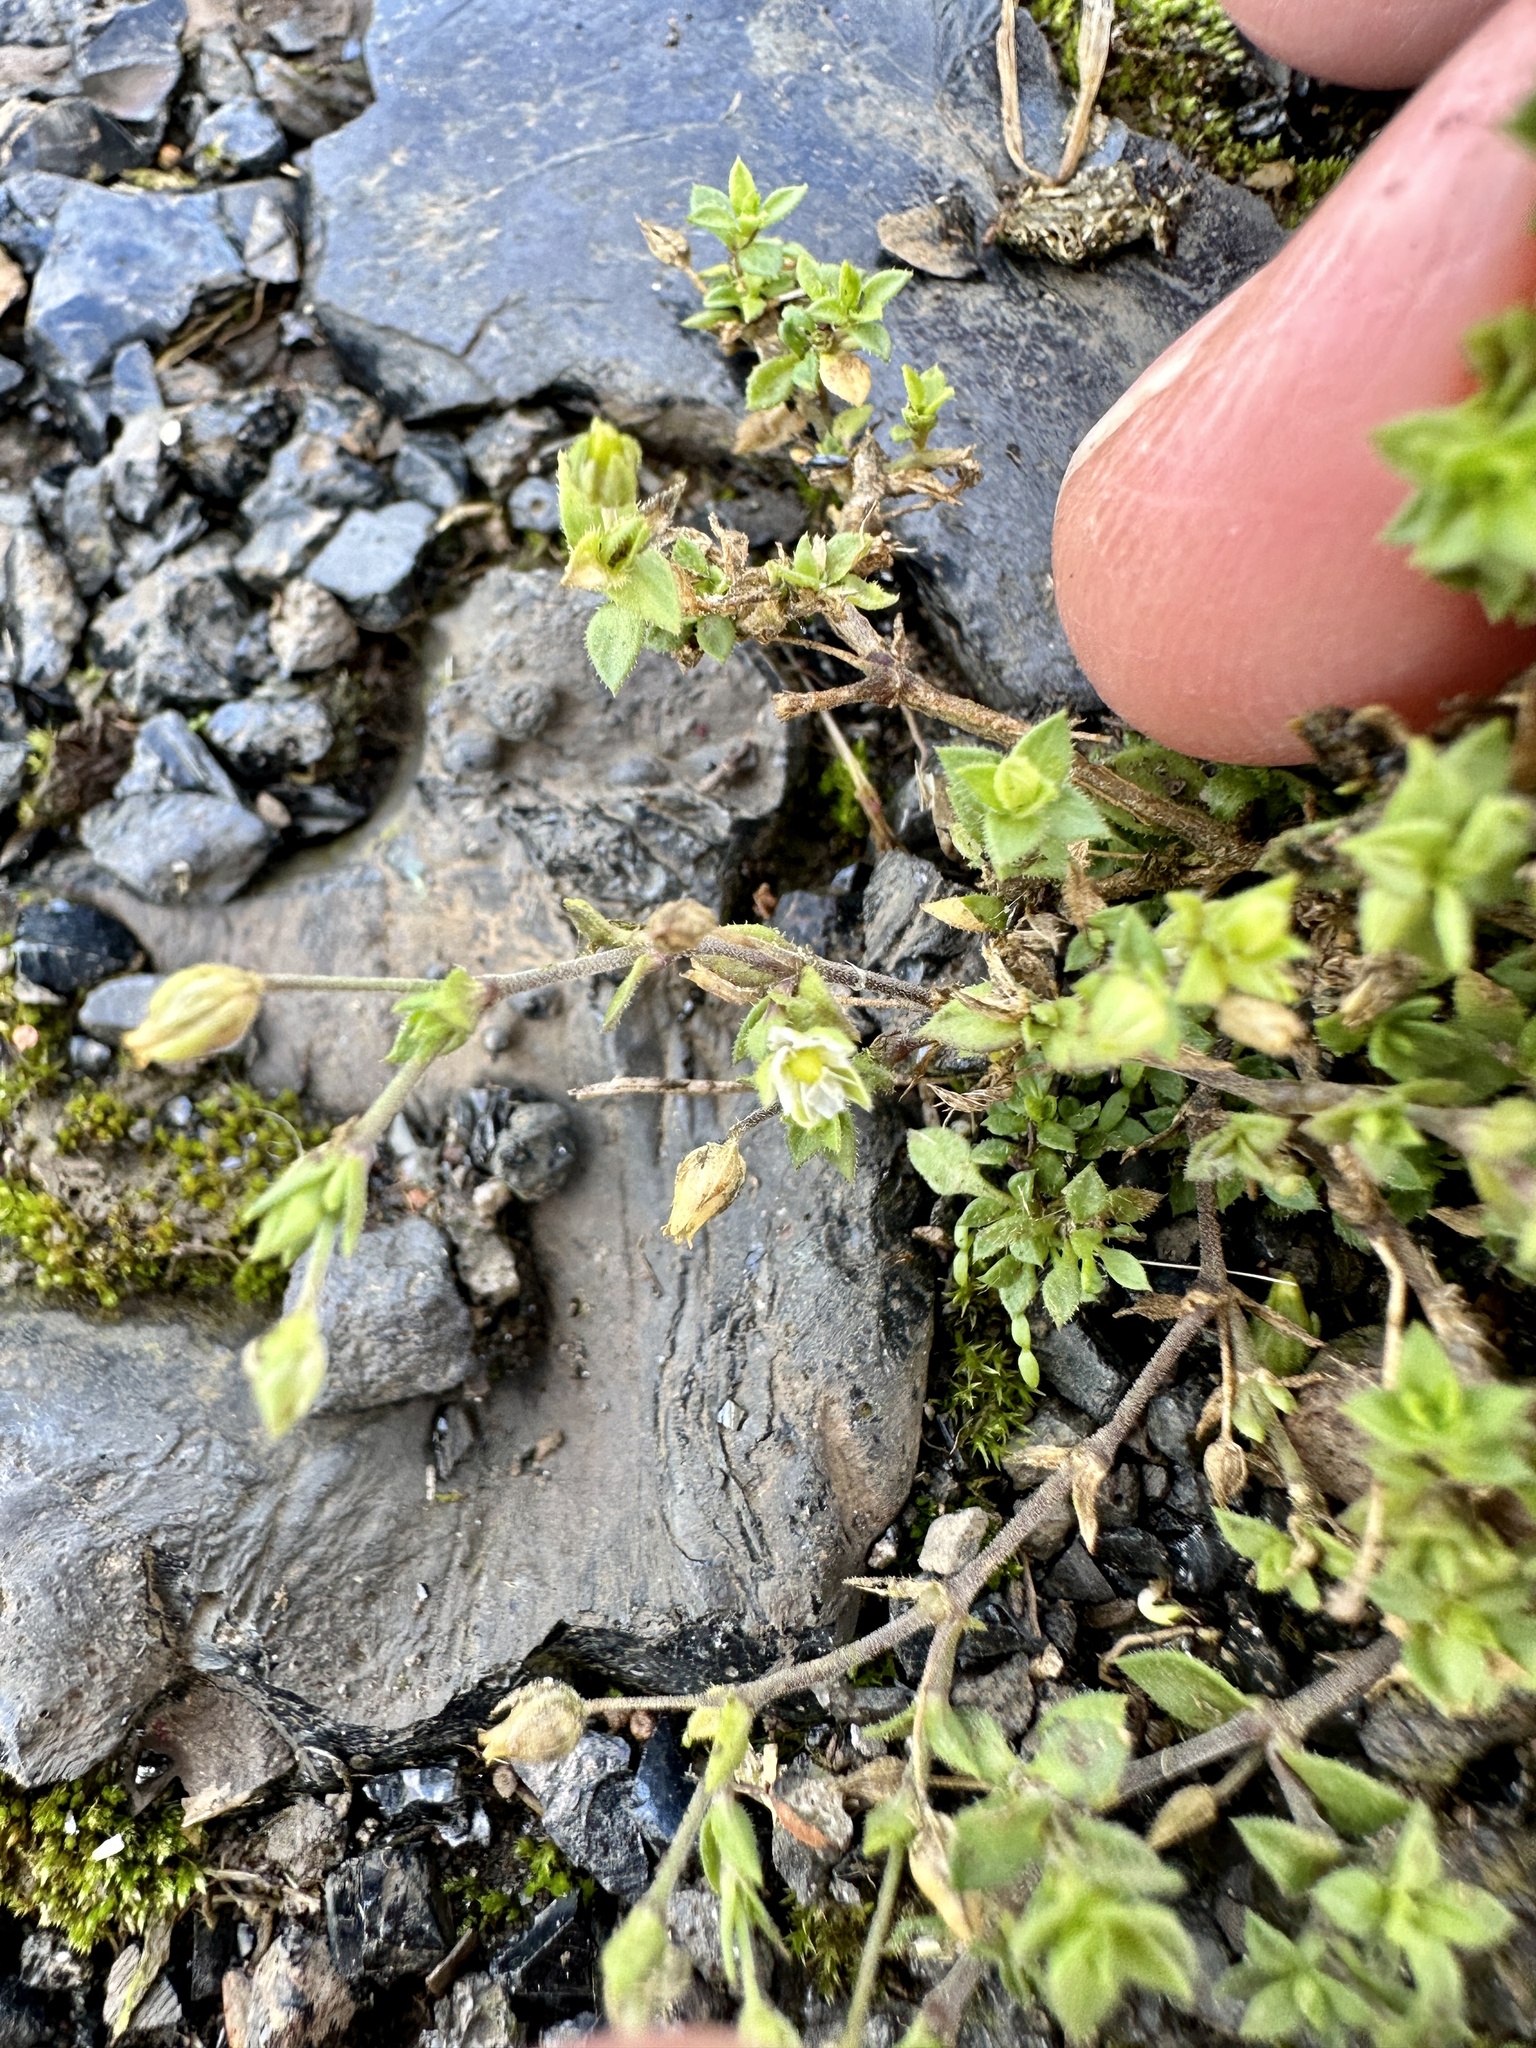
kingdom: Plantae
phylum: Tracheophyta
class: Magnoliopsida
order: Caryophyllales
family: Caryophyllaceae
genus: Arenaria
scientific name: Arenaria serpyllifolia
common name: Thyme-leaved sandwort
